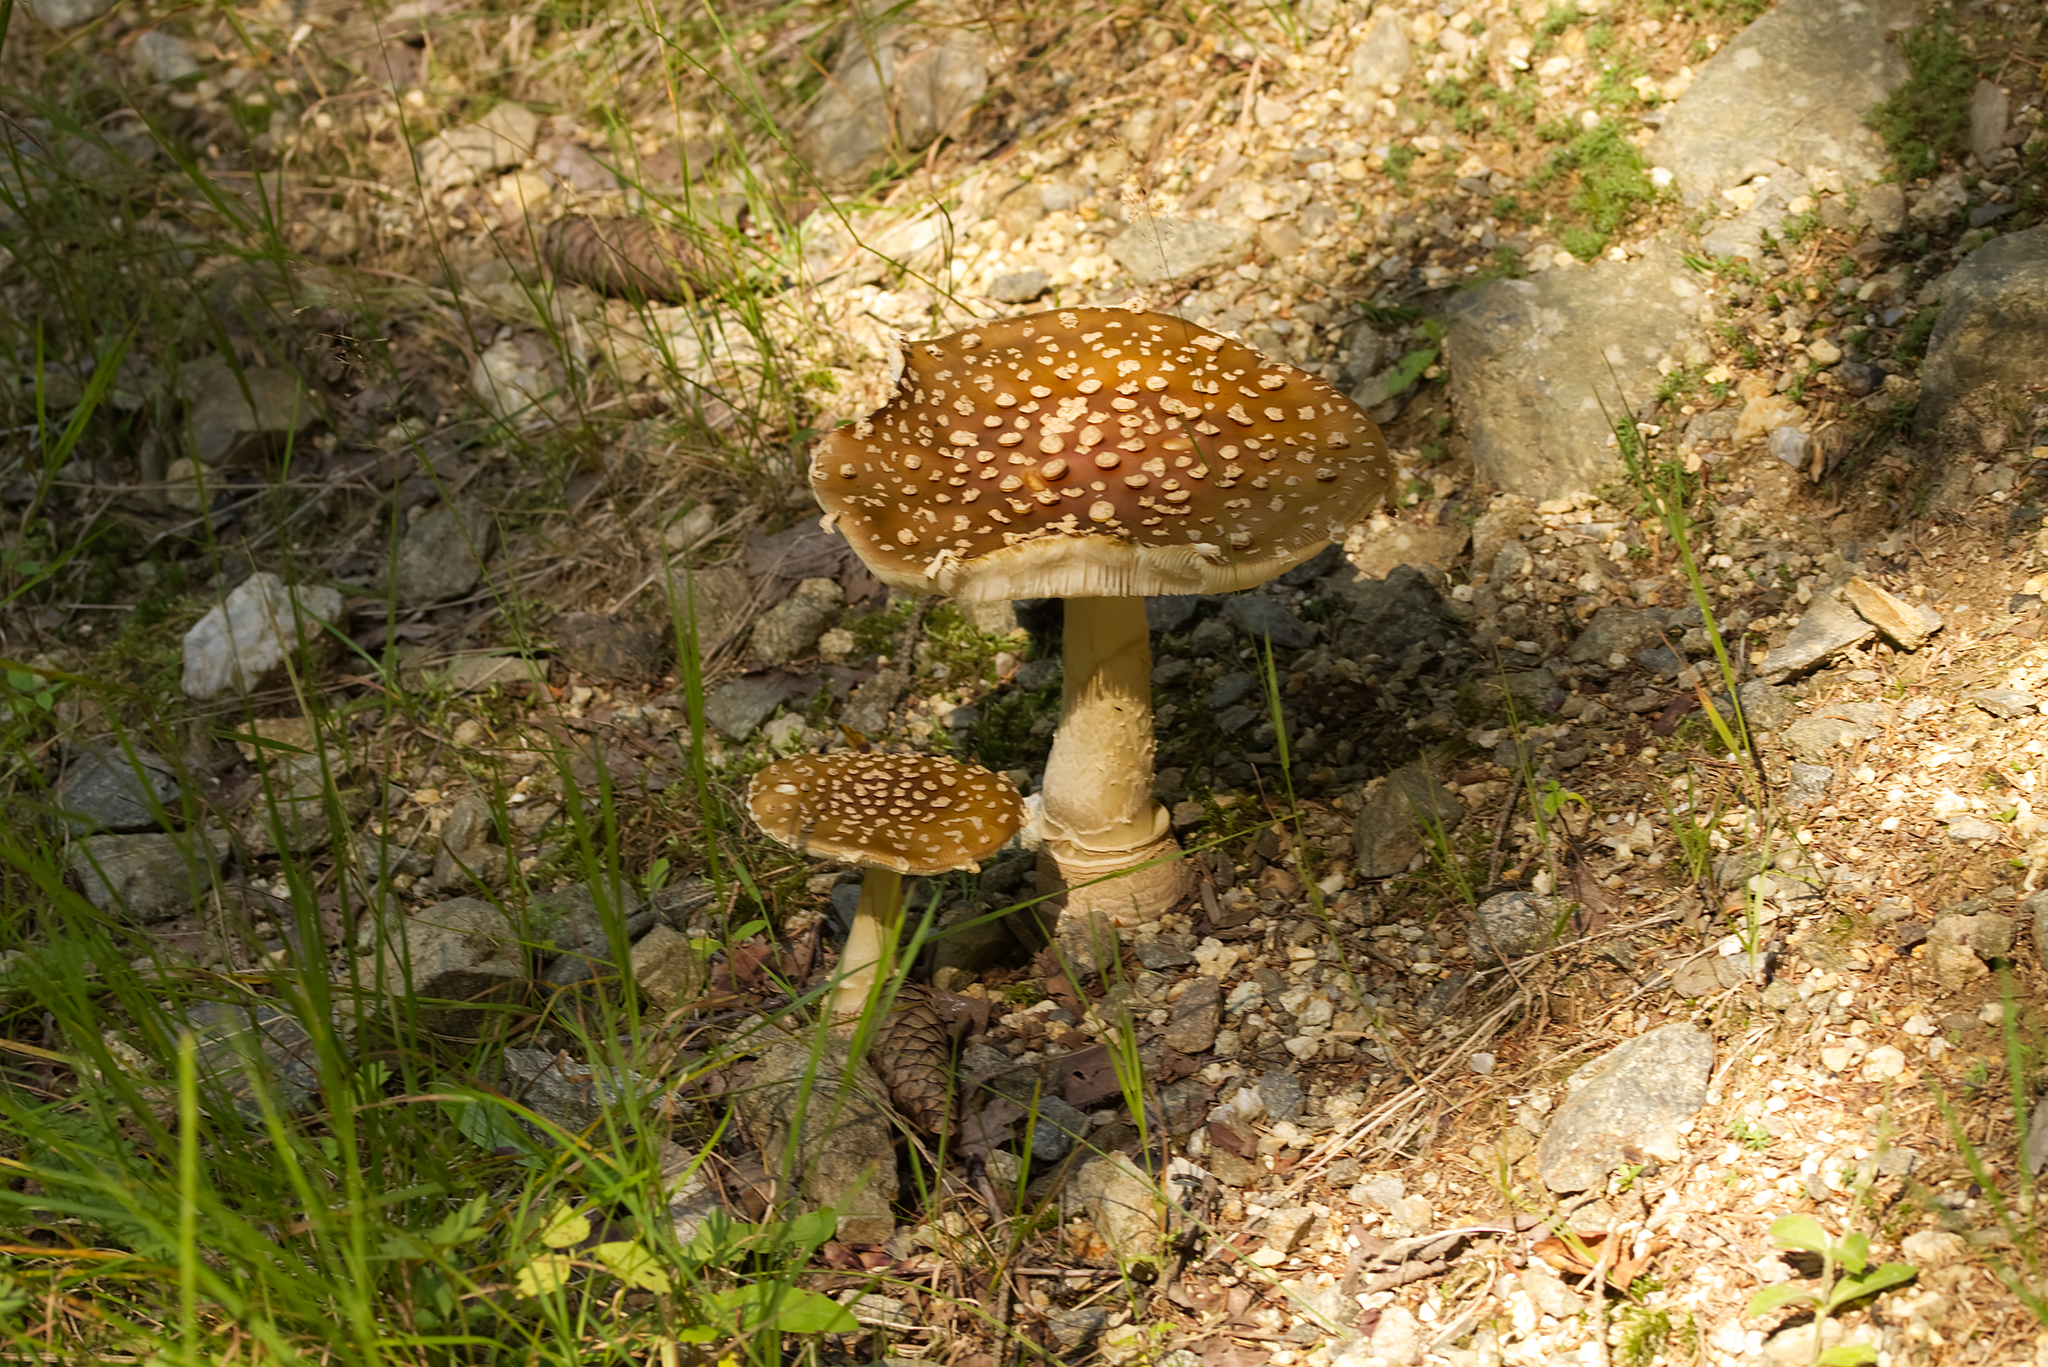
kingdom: Fungi
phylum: Basidiomycota
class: Agaricomycetes
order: Agaricales
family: Amanitaceae
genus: Amanita
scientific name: Amanita pantherina
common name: Panthercap
